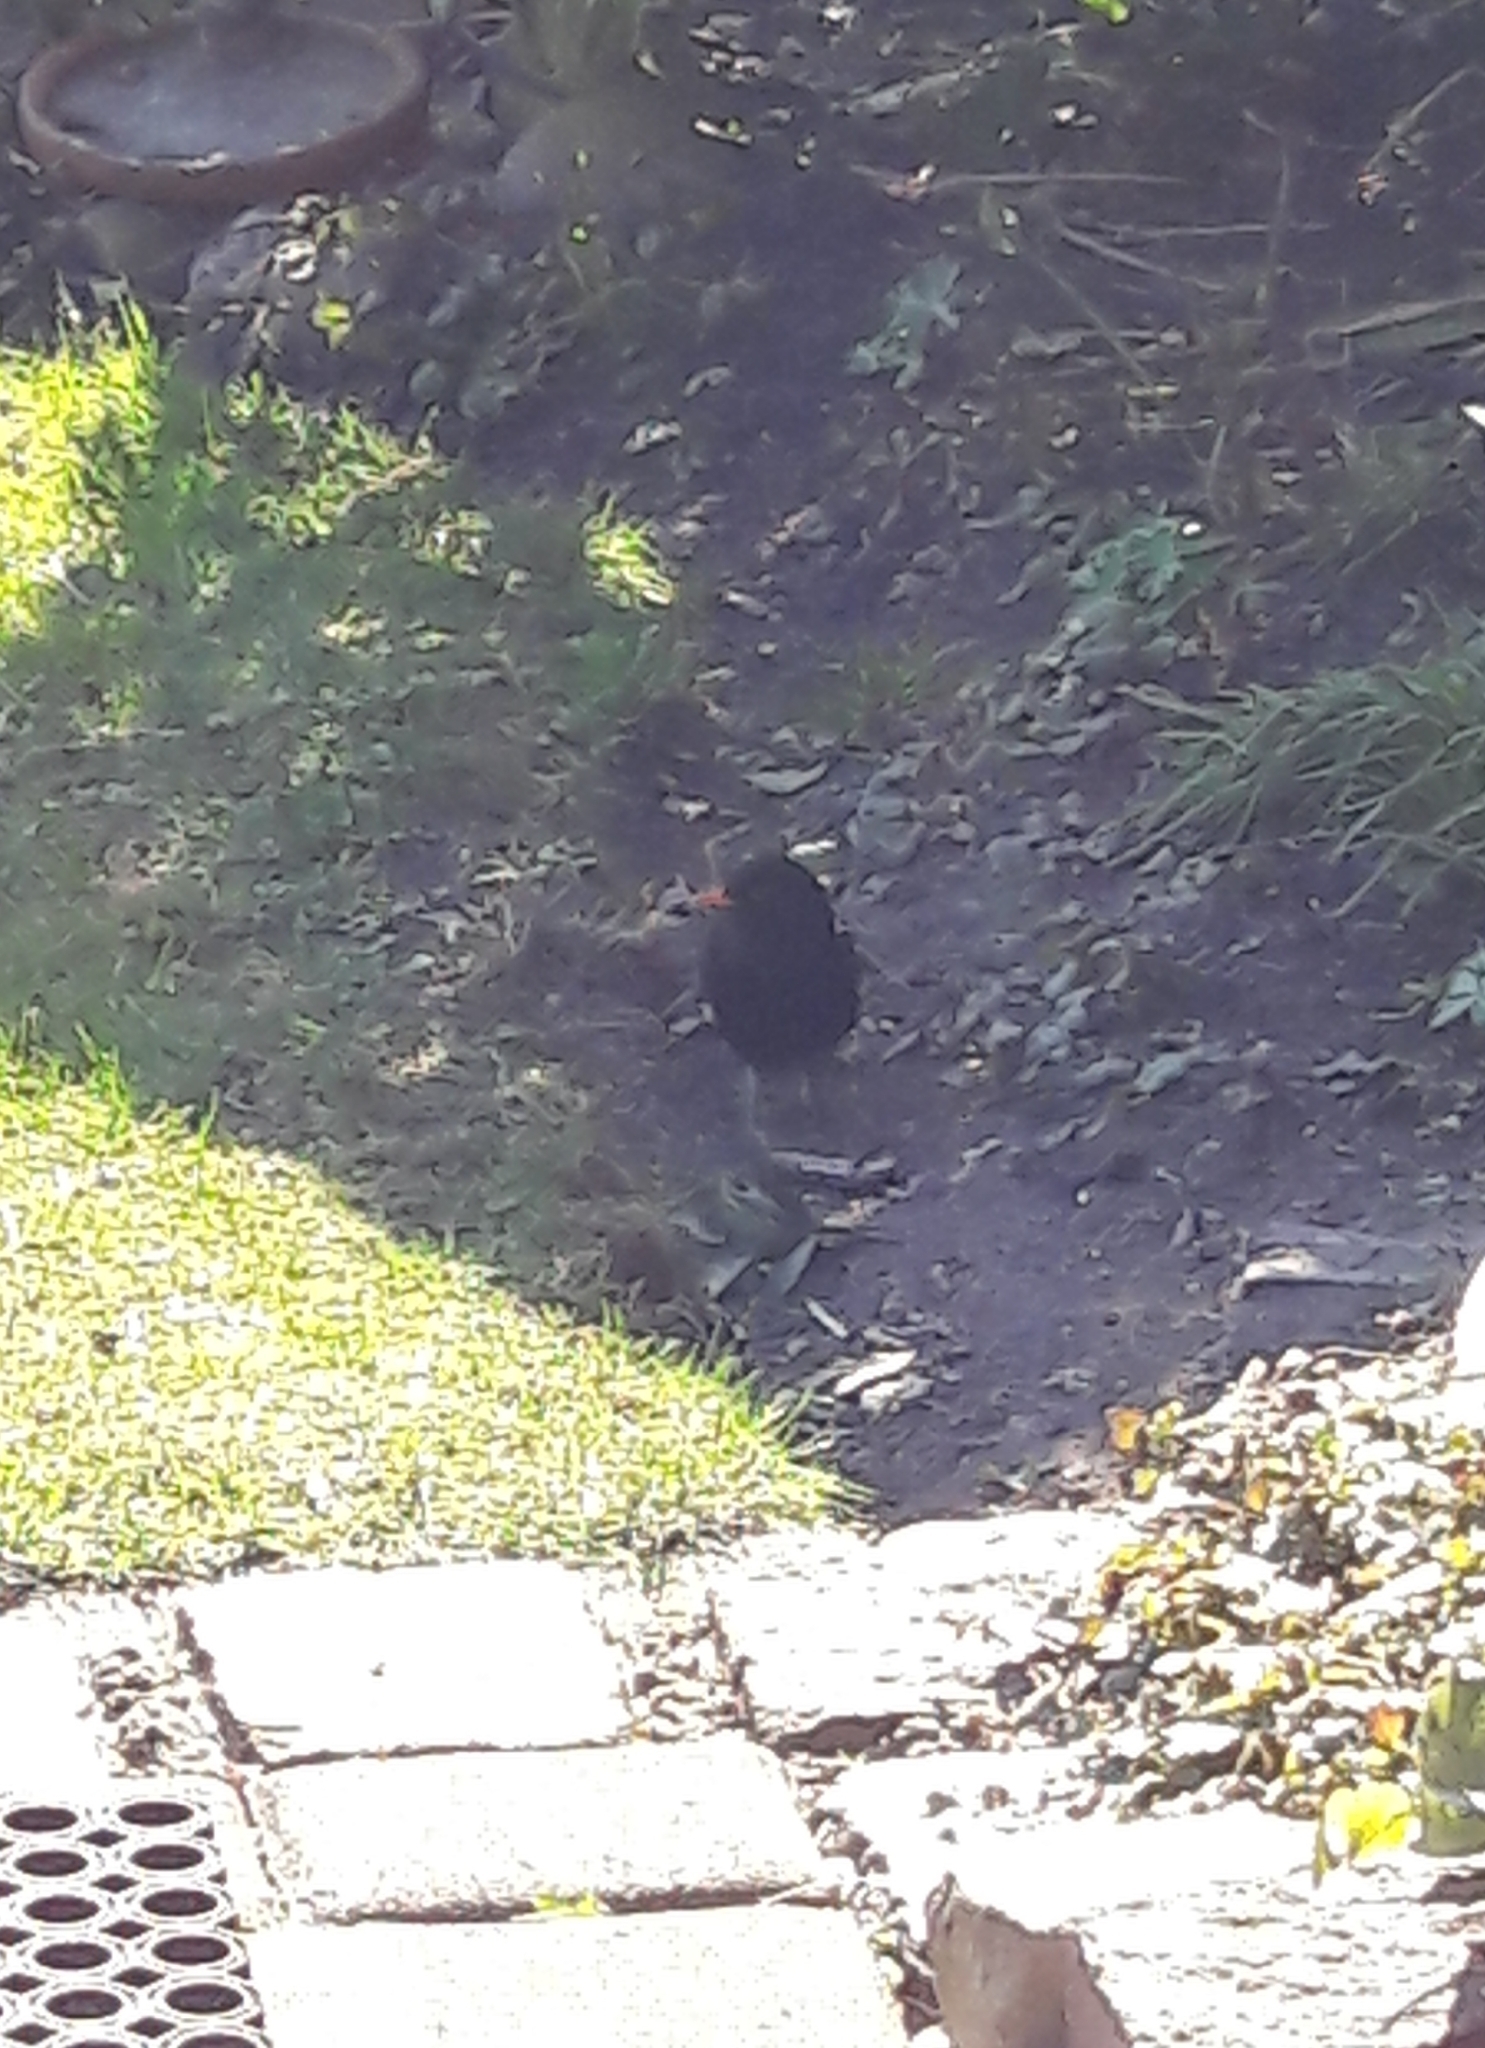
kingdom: Animalia
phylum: Chordata
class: Aves
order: Passeriformes
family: Turdidae
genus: Turdus
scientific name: Turdus merula
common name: Common blackbird
